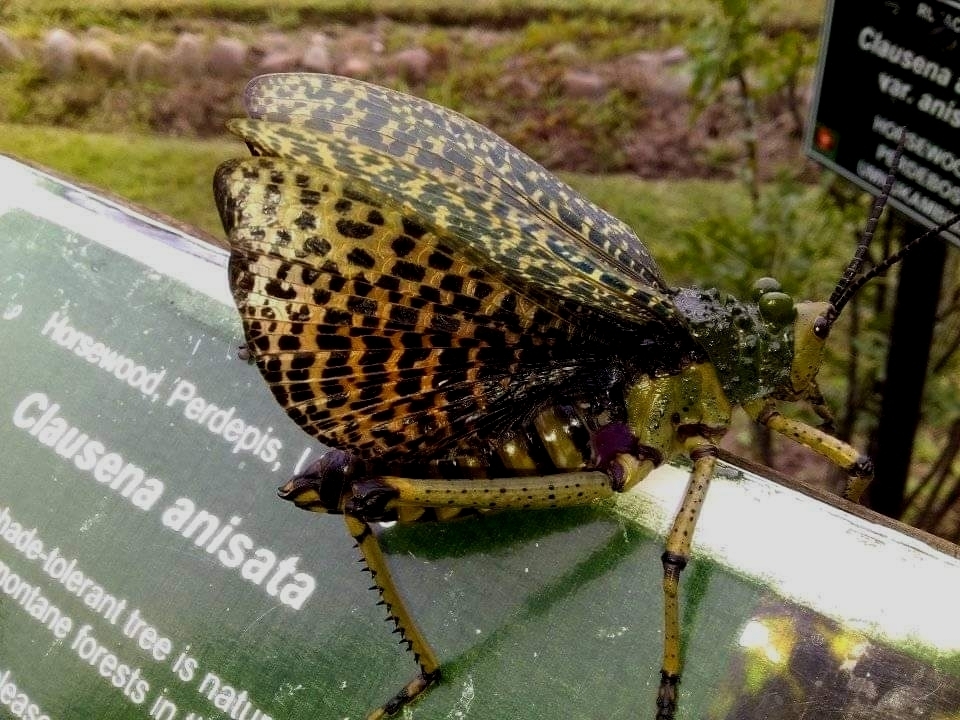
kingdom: Animalia
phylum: Arthropoda
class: Insecta
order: Orthoptera
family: Pyrgomorphidae
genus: Phymateus
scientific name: Phymateus leprosus
